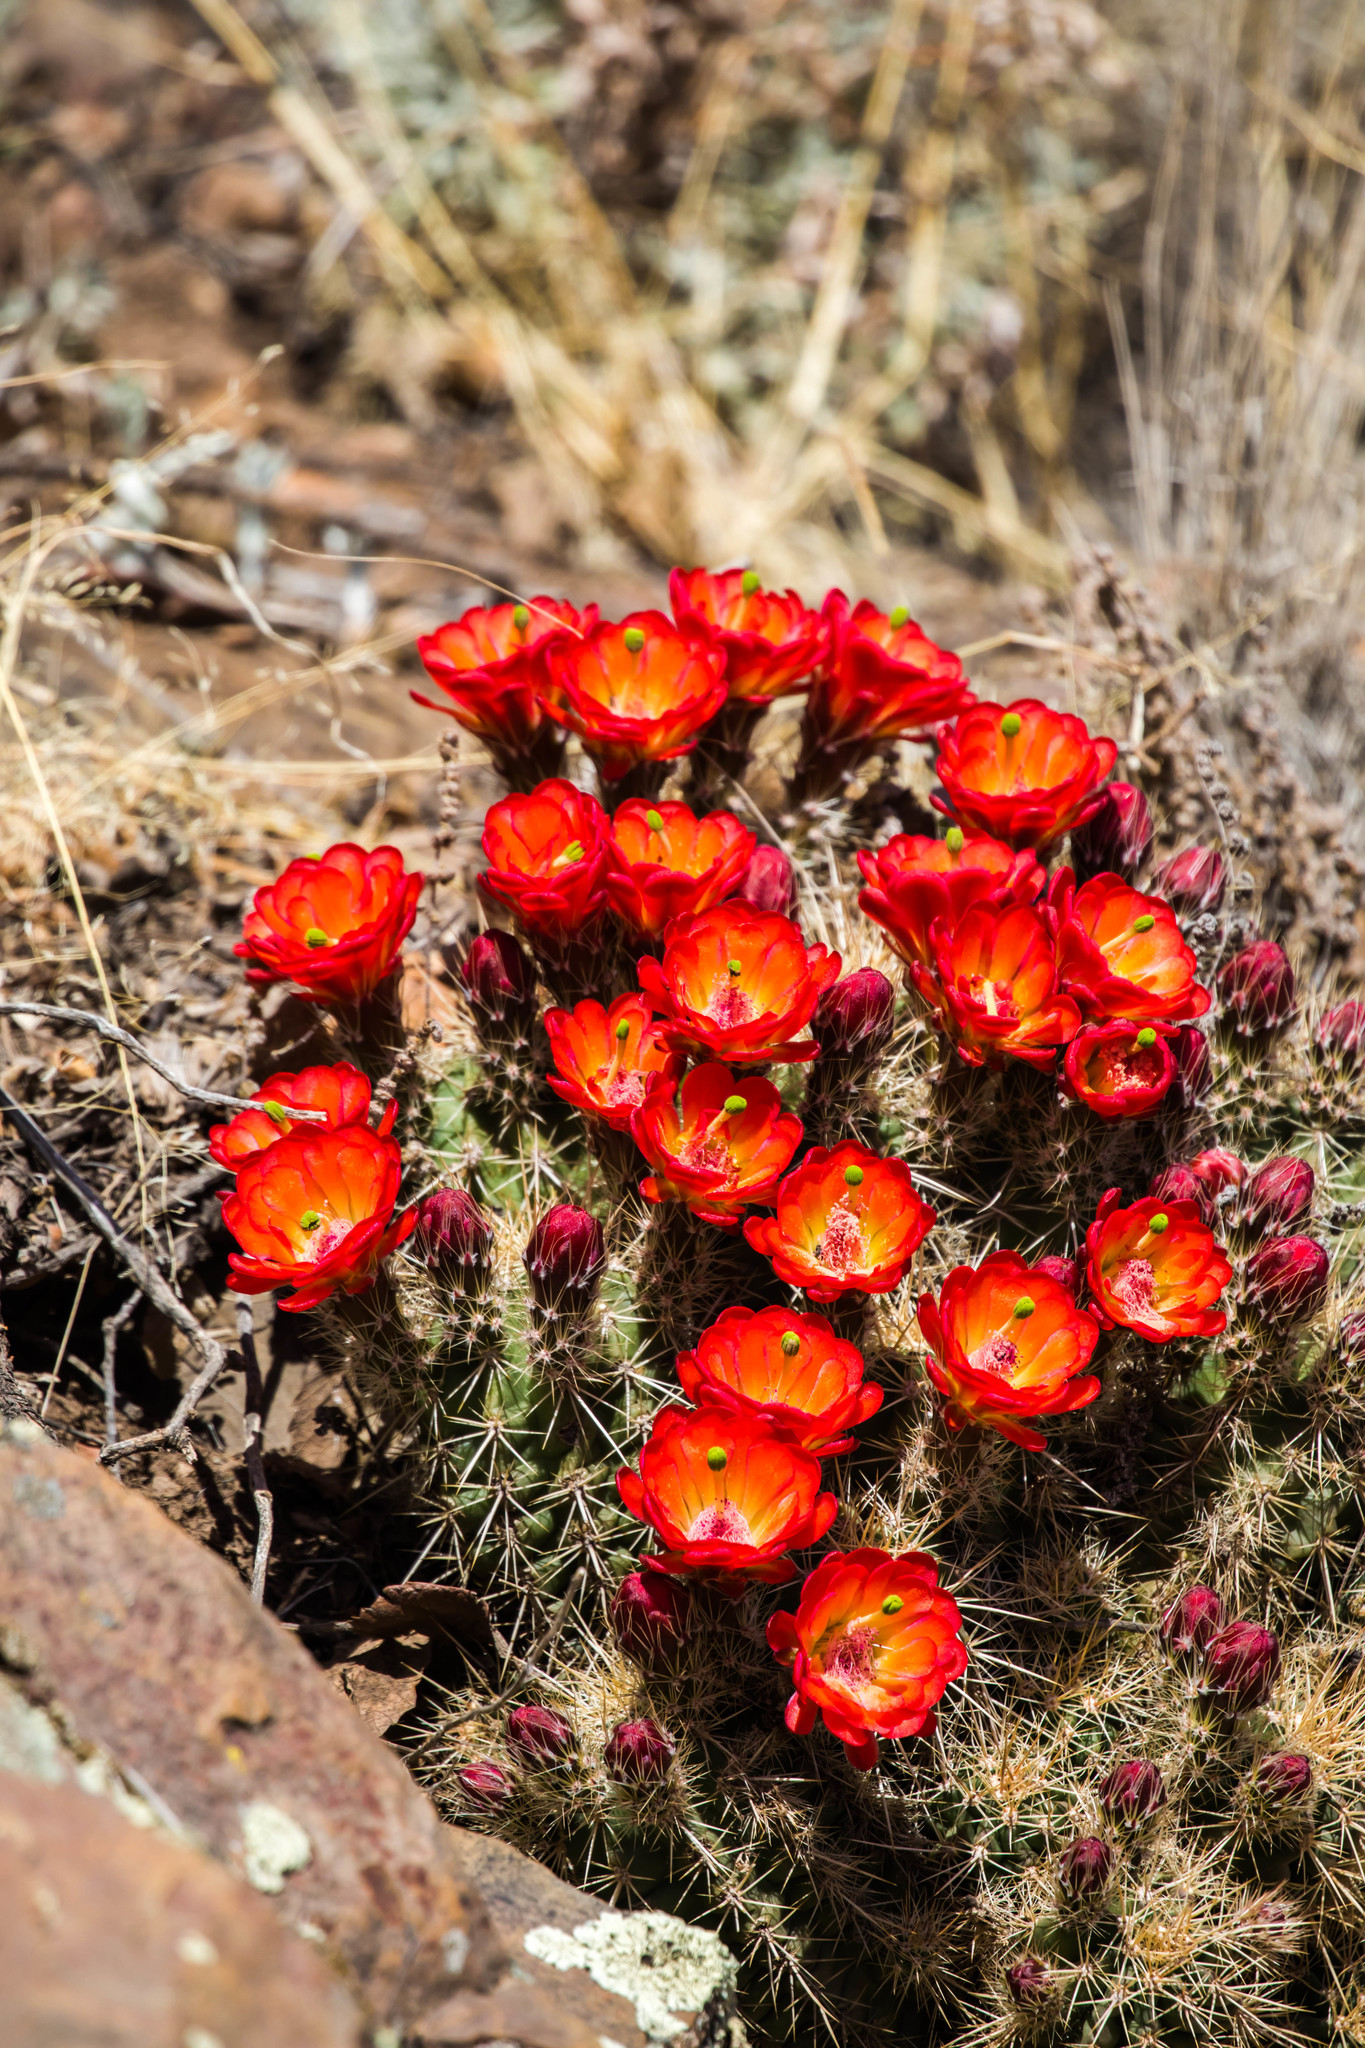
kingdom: Plantae
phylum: Tracheophyta
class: Magnoliopsida
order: Caryophyllales
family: Cactaceae
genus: Echinocereus
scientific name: Echinocereus coccineus
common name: Scarlet hedgehog cactus
